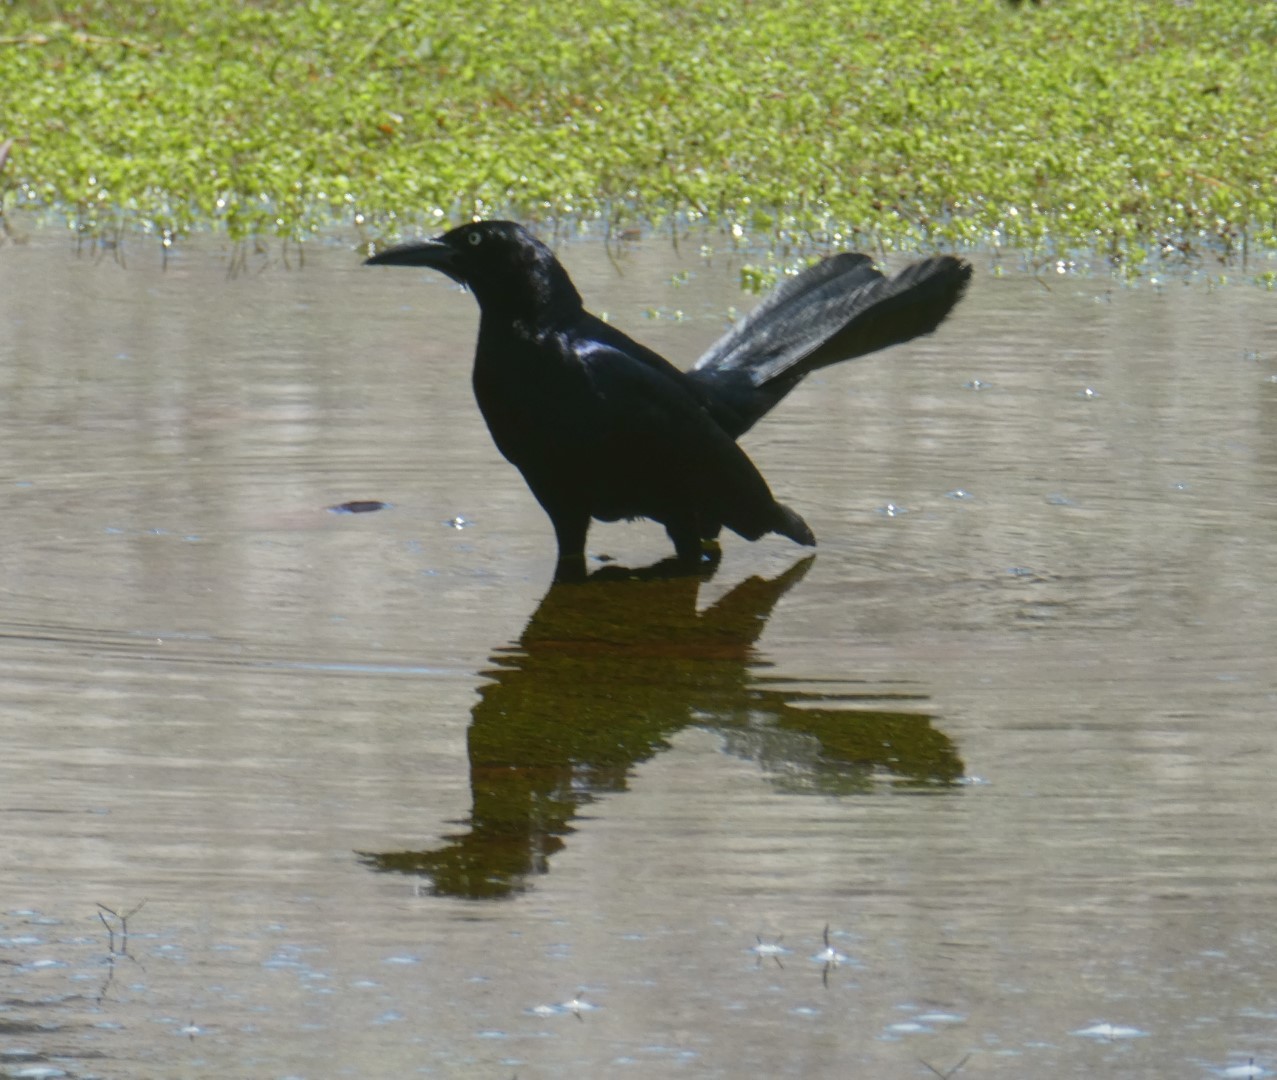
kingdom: Animalia
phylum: Chordata
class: Aves
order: Passeriformes
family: Icteridae
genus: Quiscalus
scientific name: Quiscalus mexicanus
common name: Great-tailed grackle
